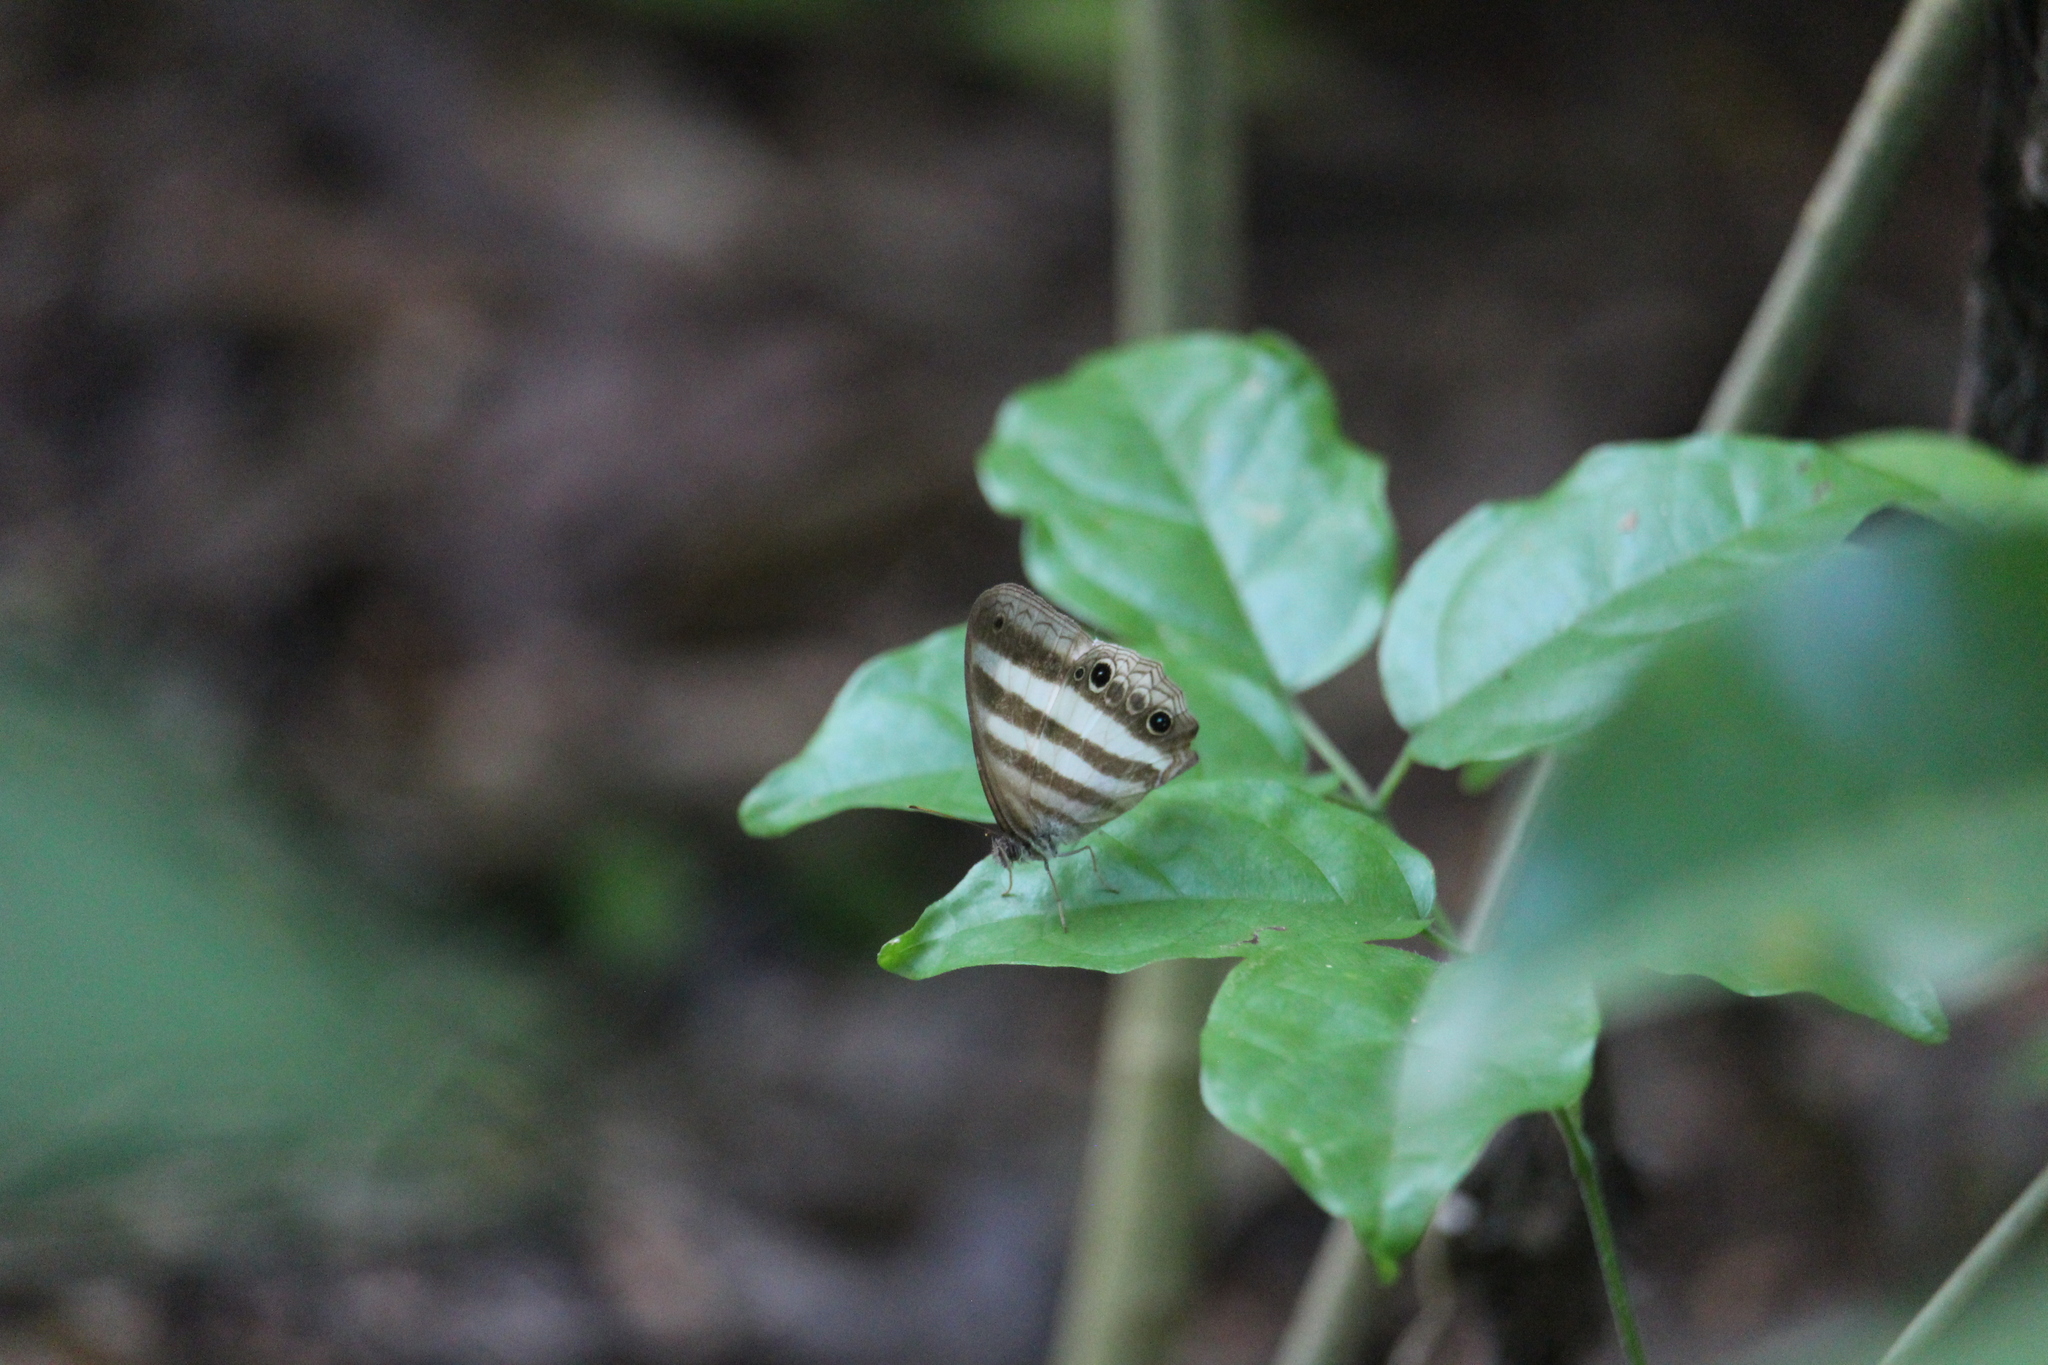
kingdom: Animalia
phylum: Arthropoda
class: Insecta
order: Lepidoptera
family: Nymphalidae
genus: Pareuptychia
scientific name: Pareuptychia hesione
